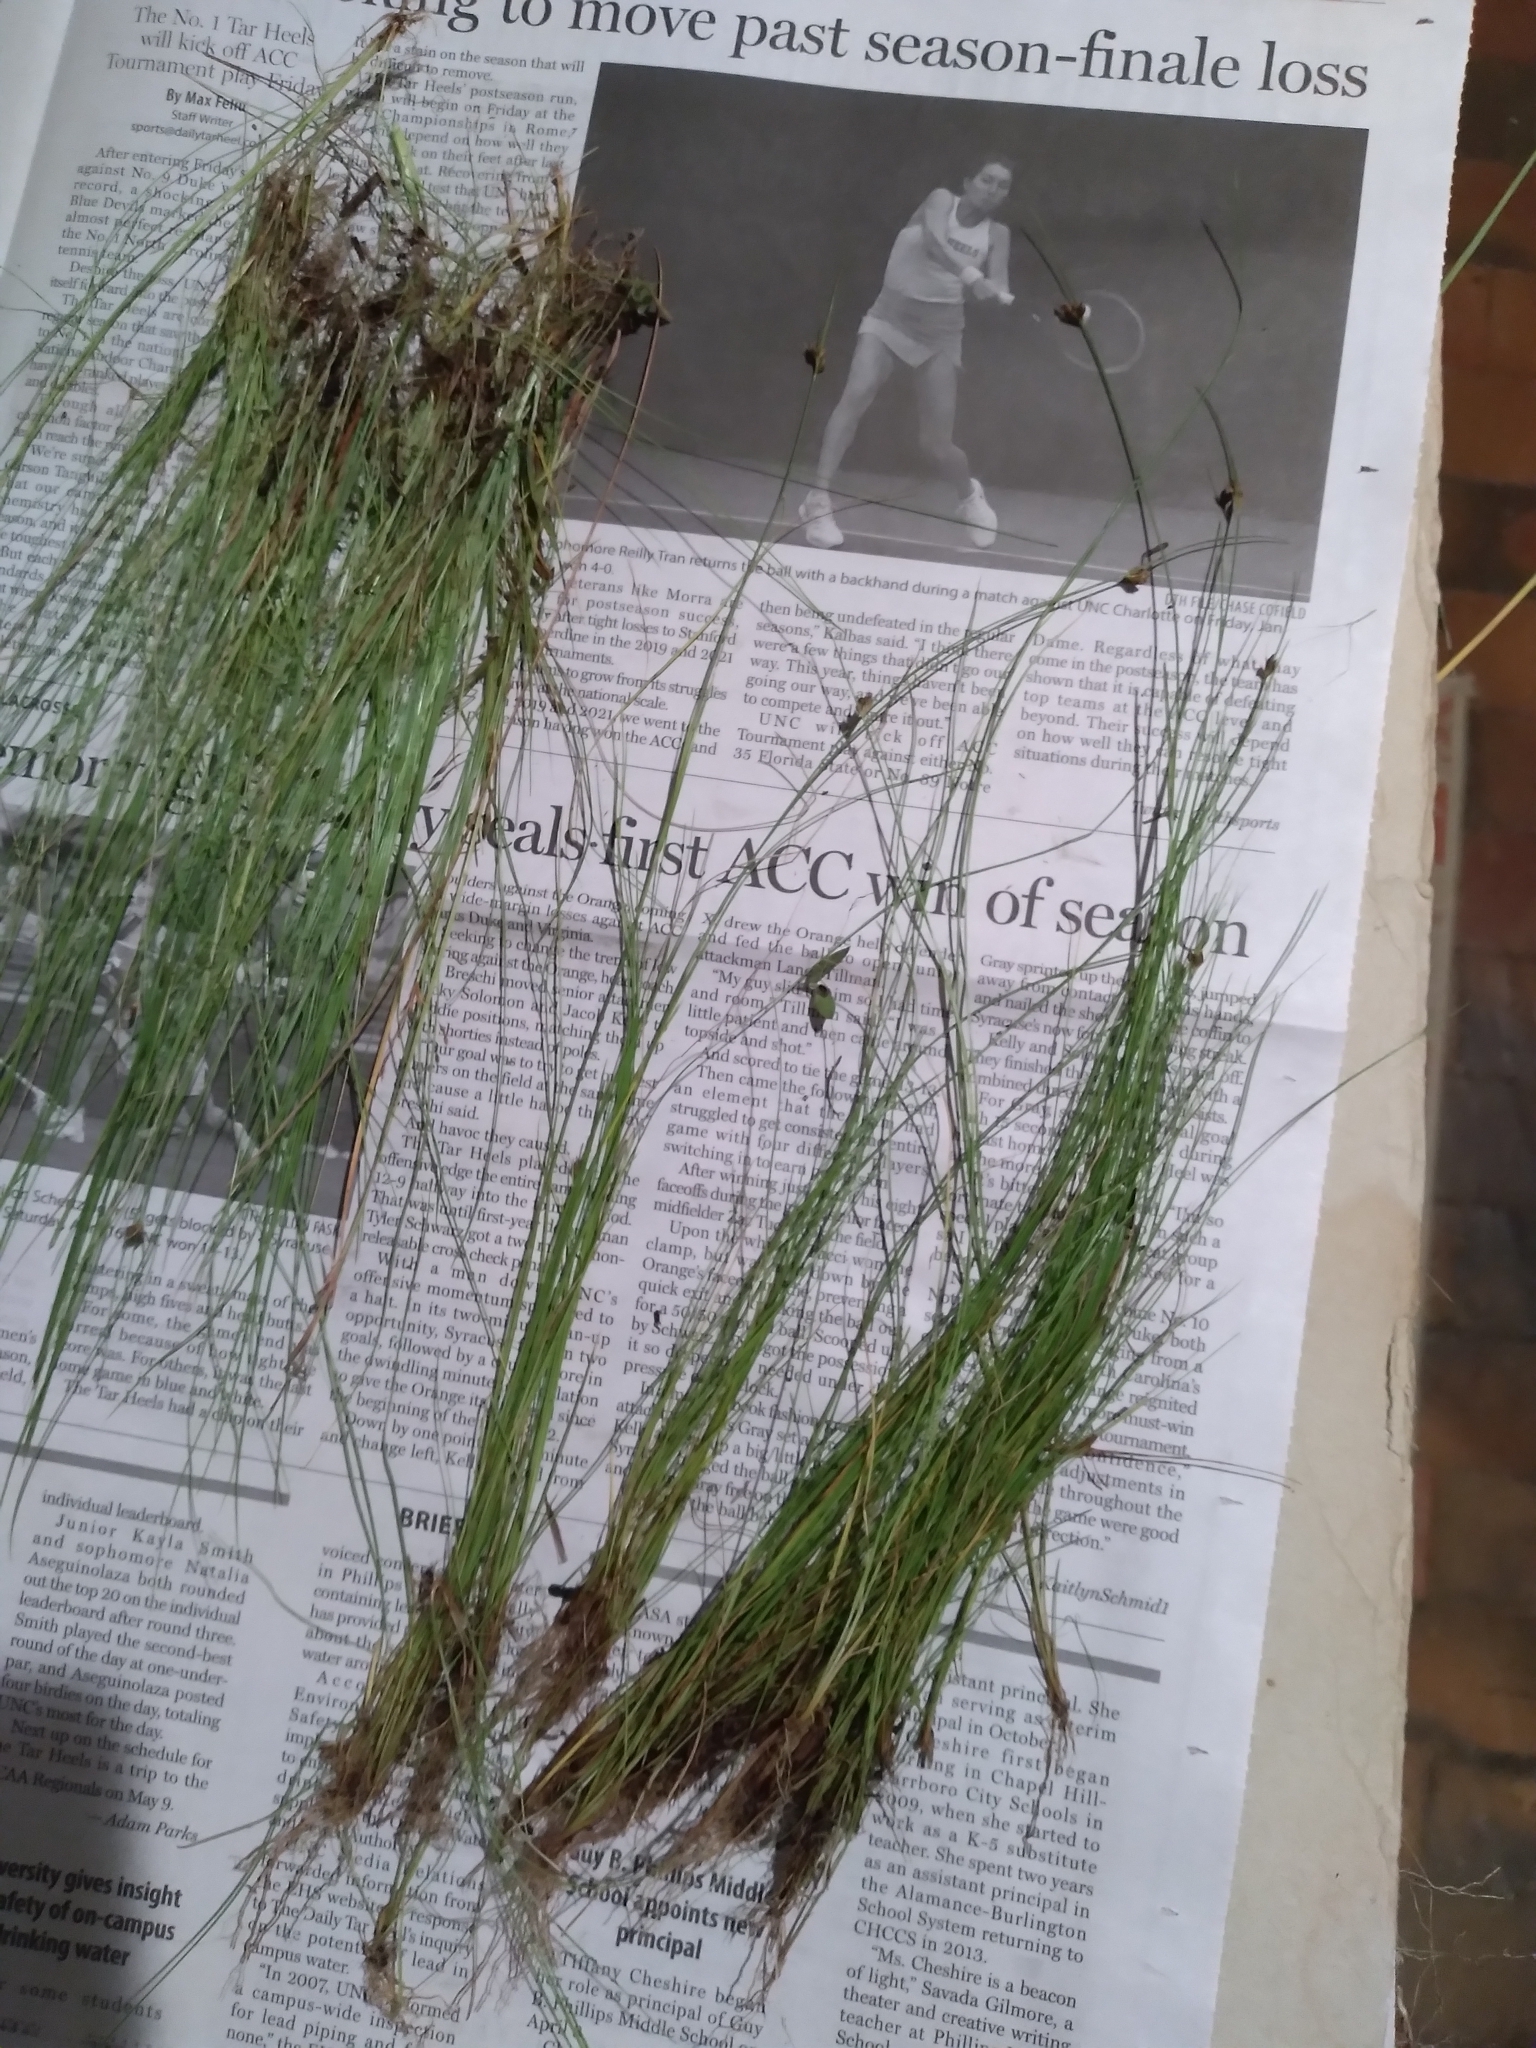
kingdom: Plantae
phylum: Tracheophyta
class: Liliopsida
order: Poales
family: Cyperaceae
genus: Rhynchospora
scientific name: Rhynchospora wrightiana
